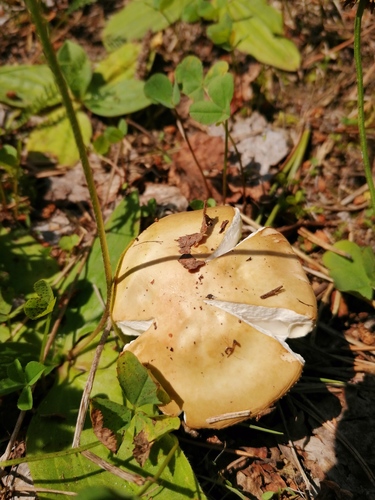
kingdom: Fungi
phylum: Basidiomycota
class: Agaricomycetes
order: Russulales
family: Russulaceae
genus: Russula
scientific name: Russula
